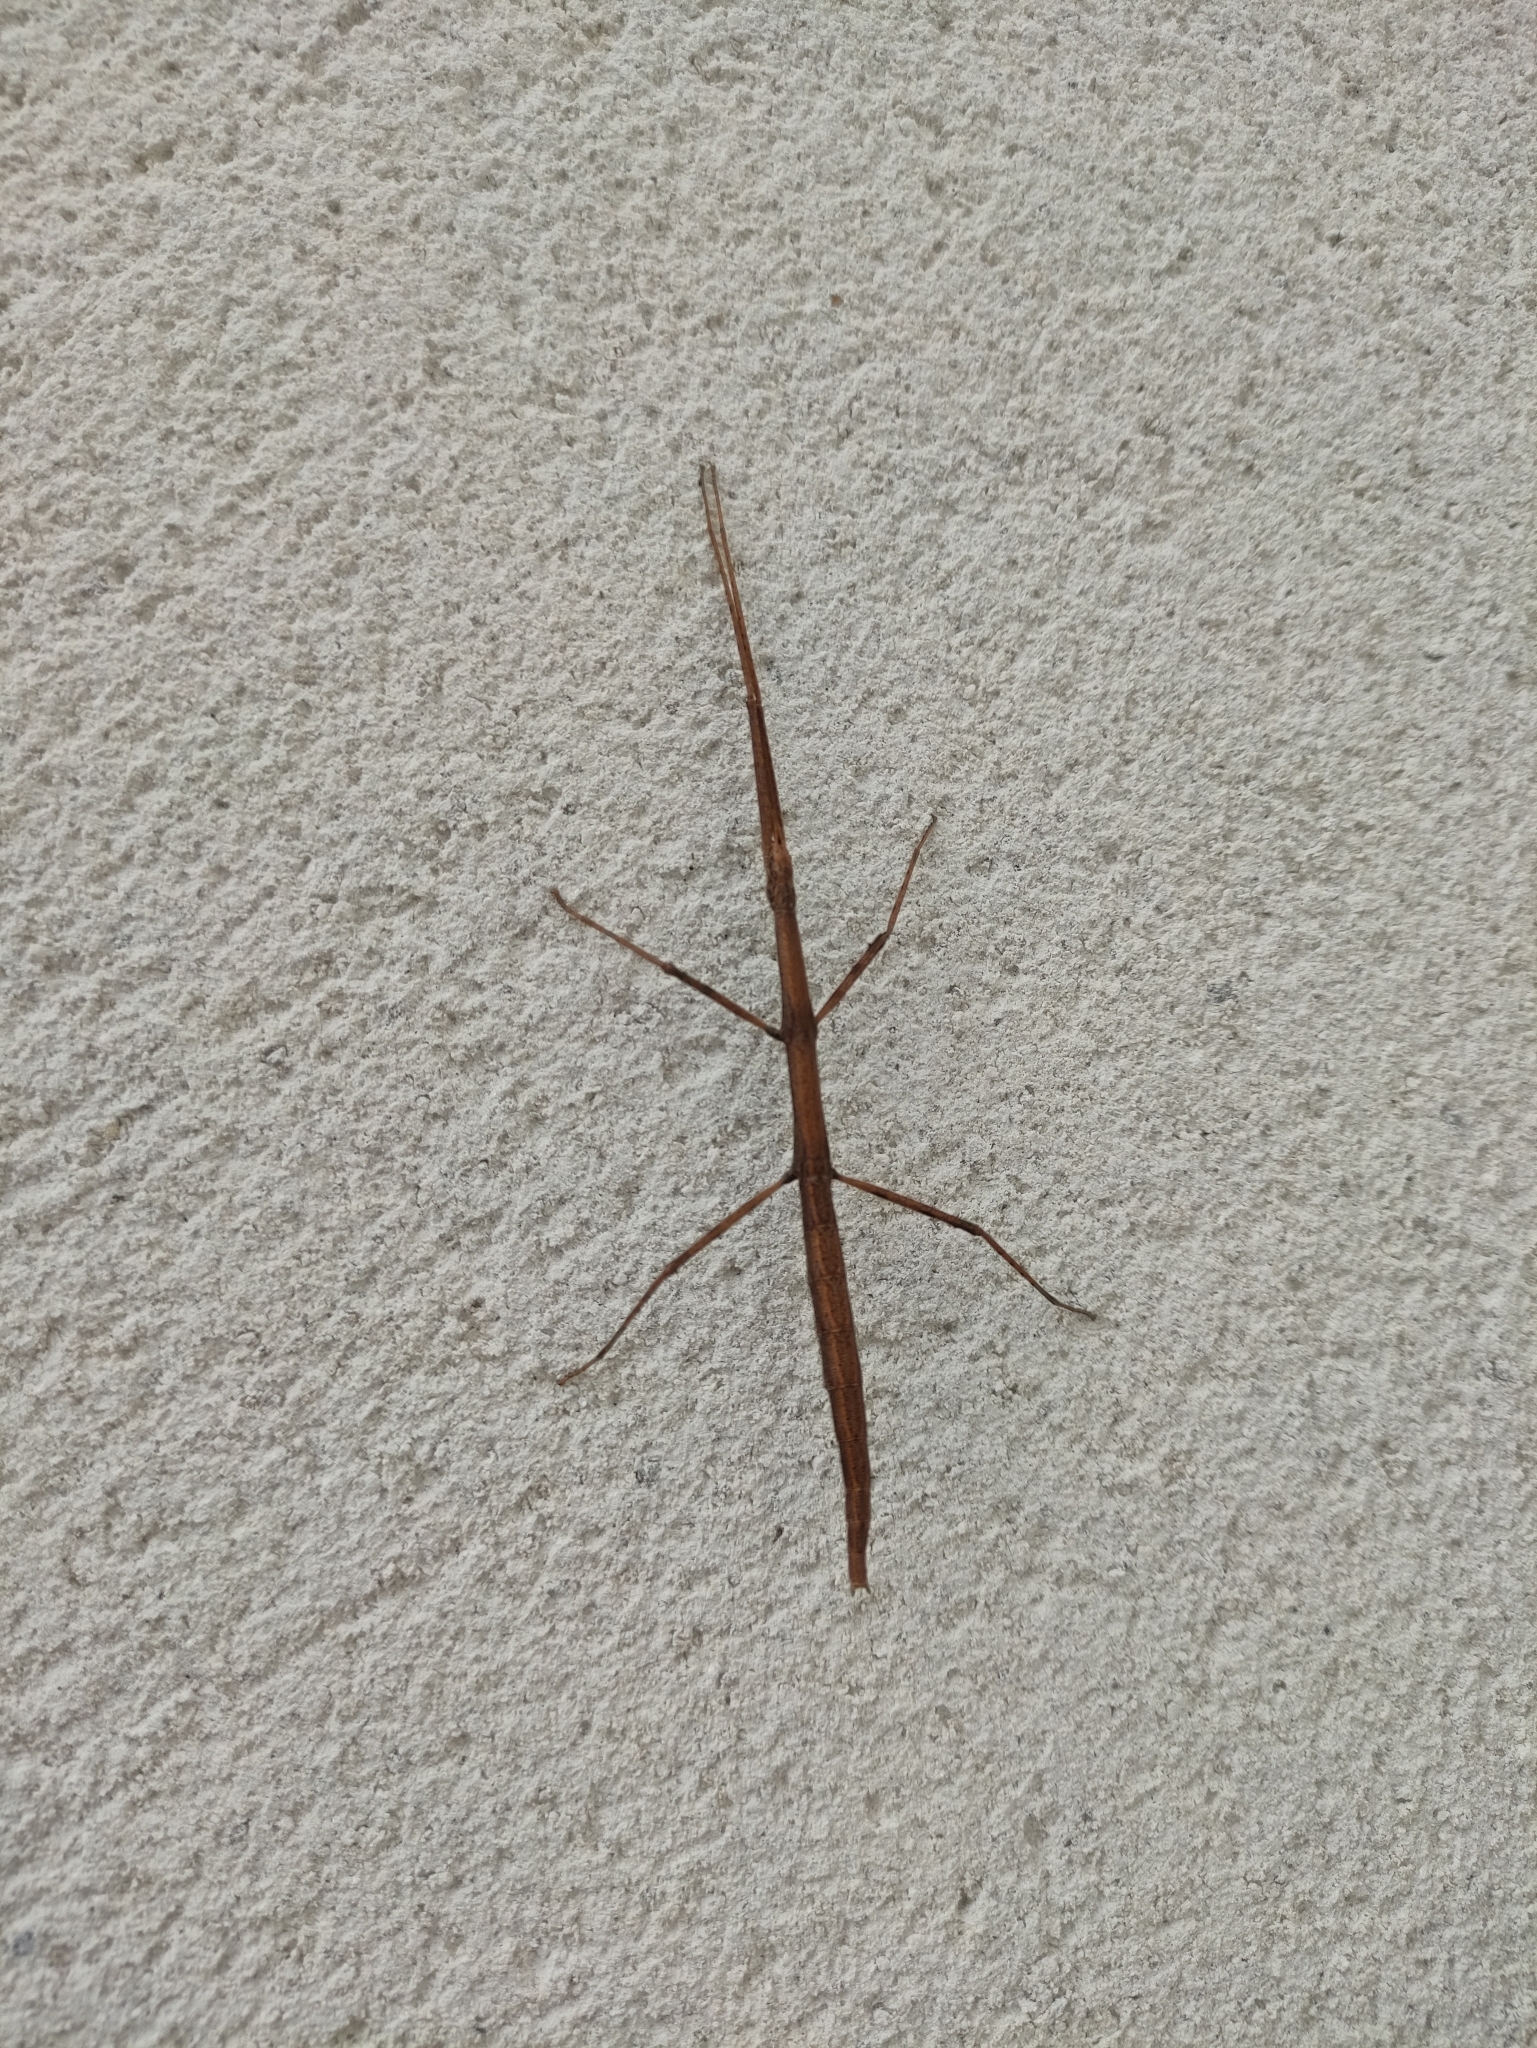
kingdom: Animalia
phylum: Arthropoda
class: Insecta
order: Phasmida
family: Bacillidae
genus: Clonopsis
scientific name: Clonopsis gallica
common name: French stick insect
